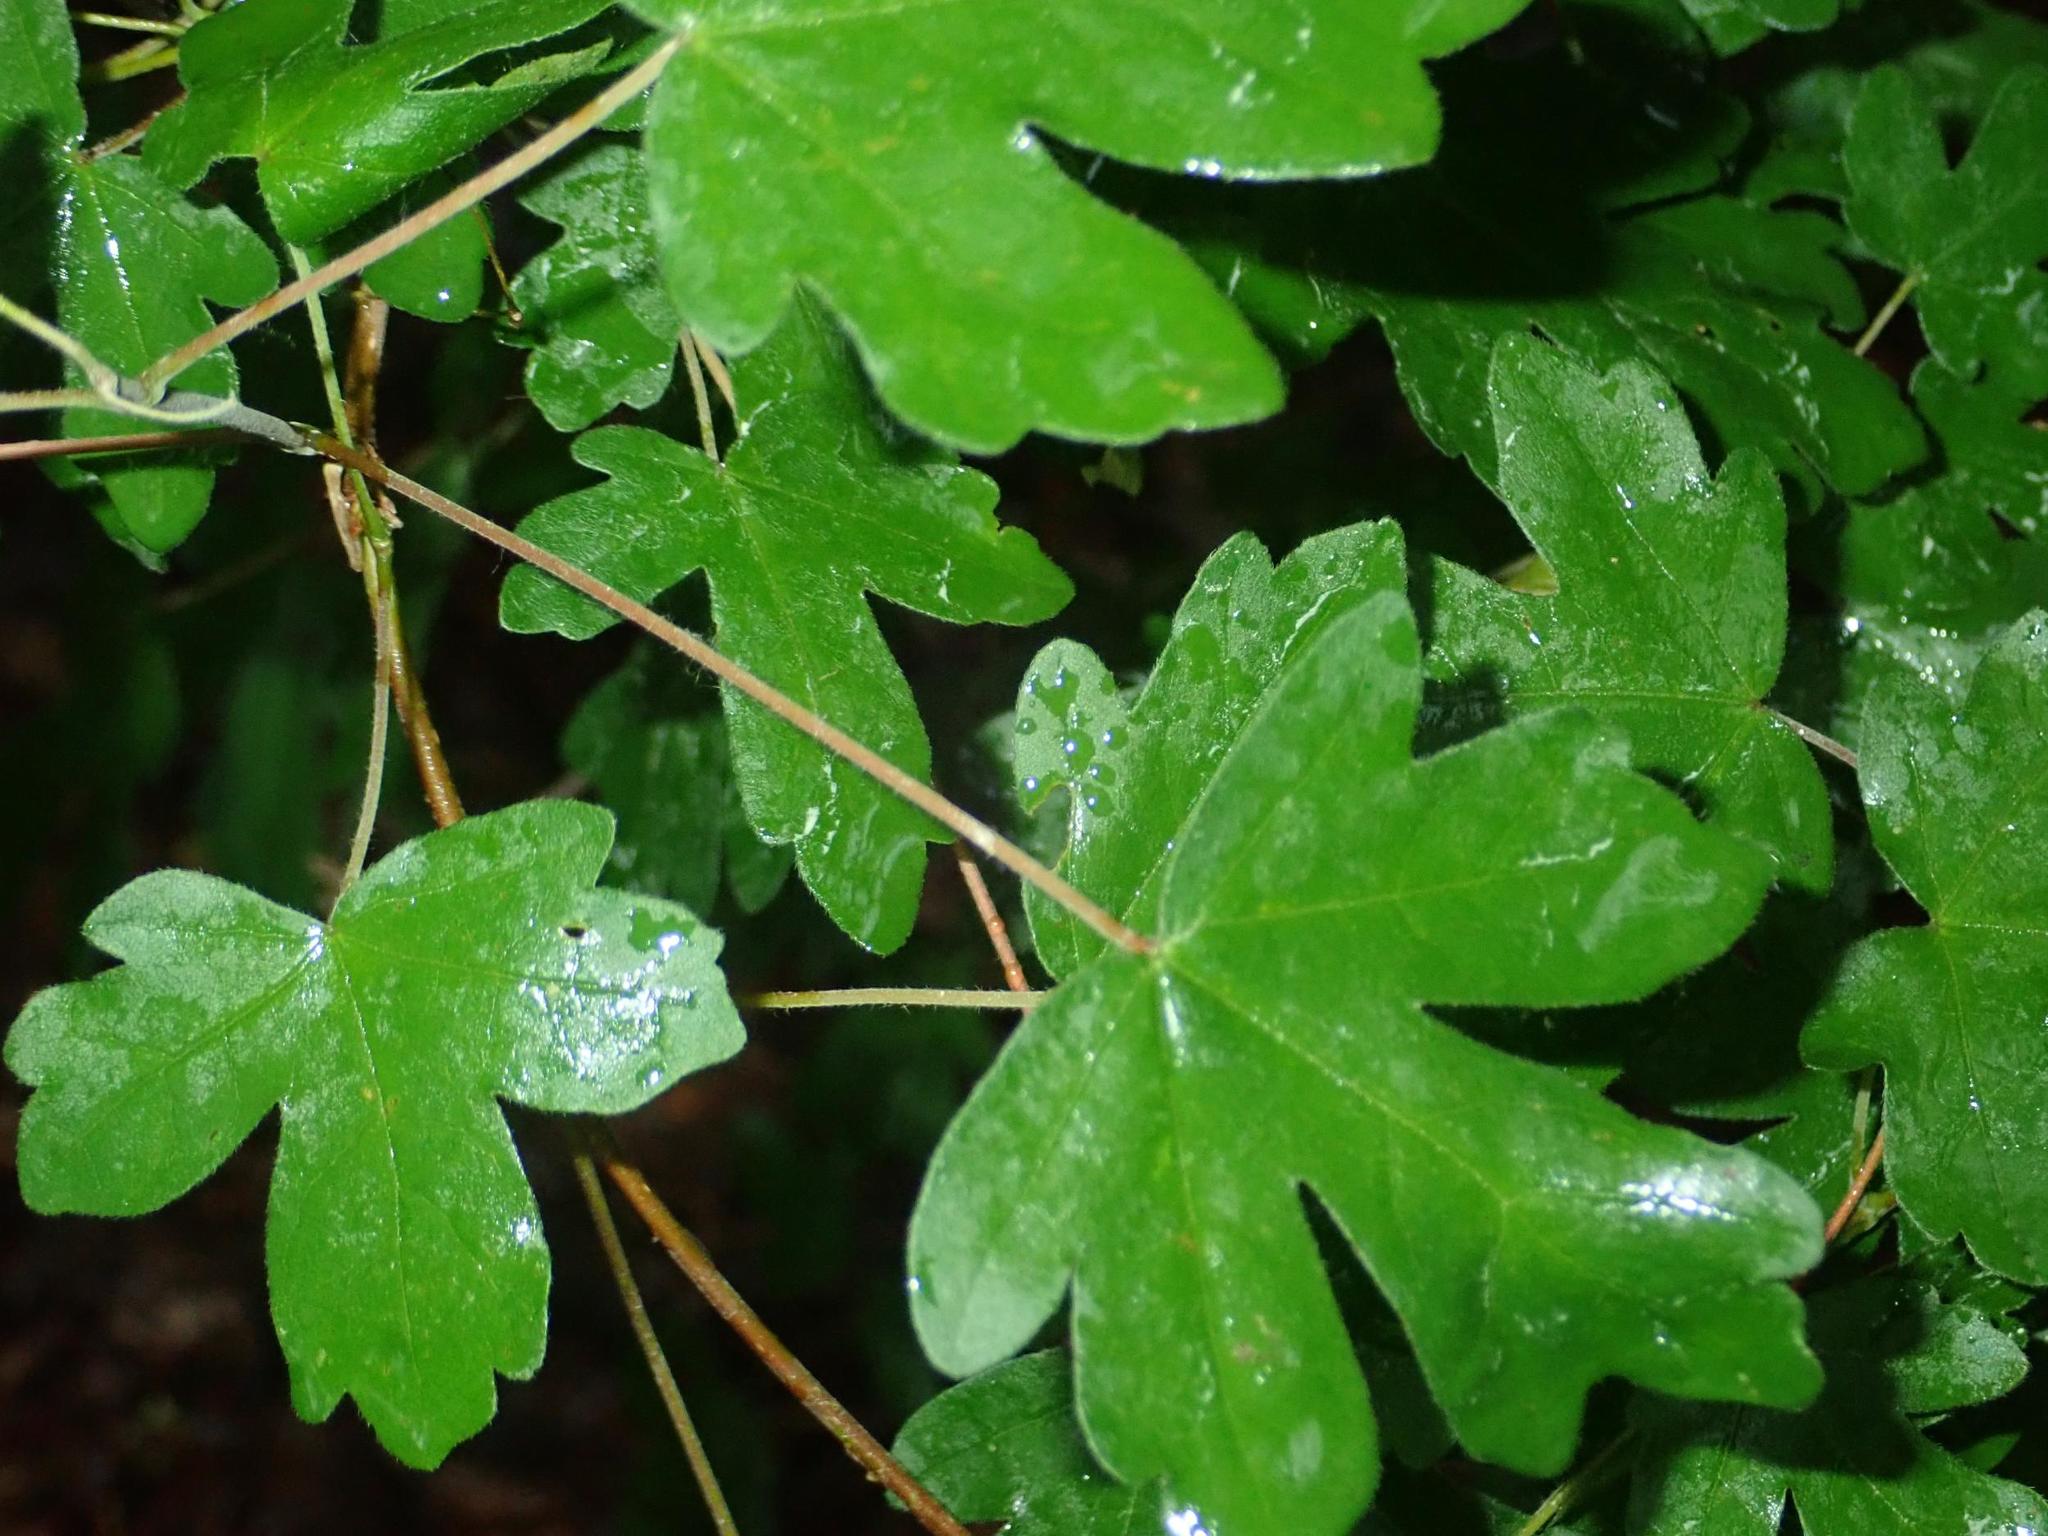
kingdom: Plantae
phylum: Tracheophyta
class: Magnoliopsida
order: Sapindales
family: Sapindaceae
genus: Acer
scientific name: Acer campestre
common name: Field maple
